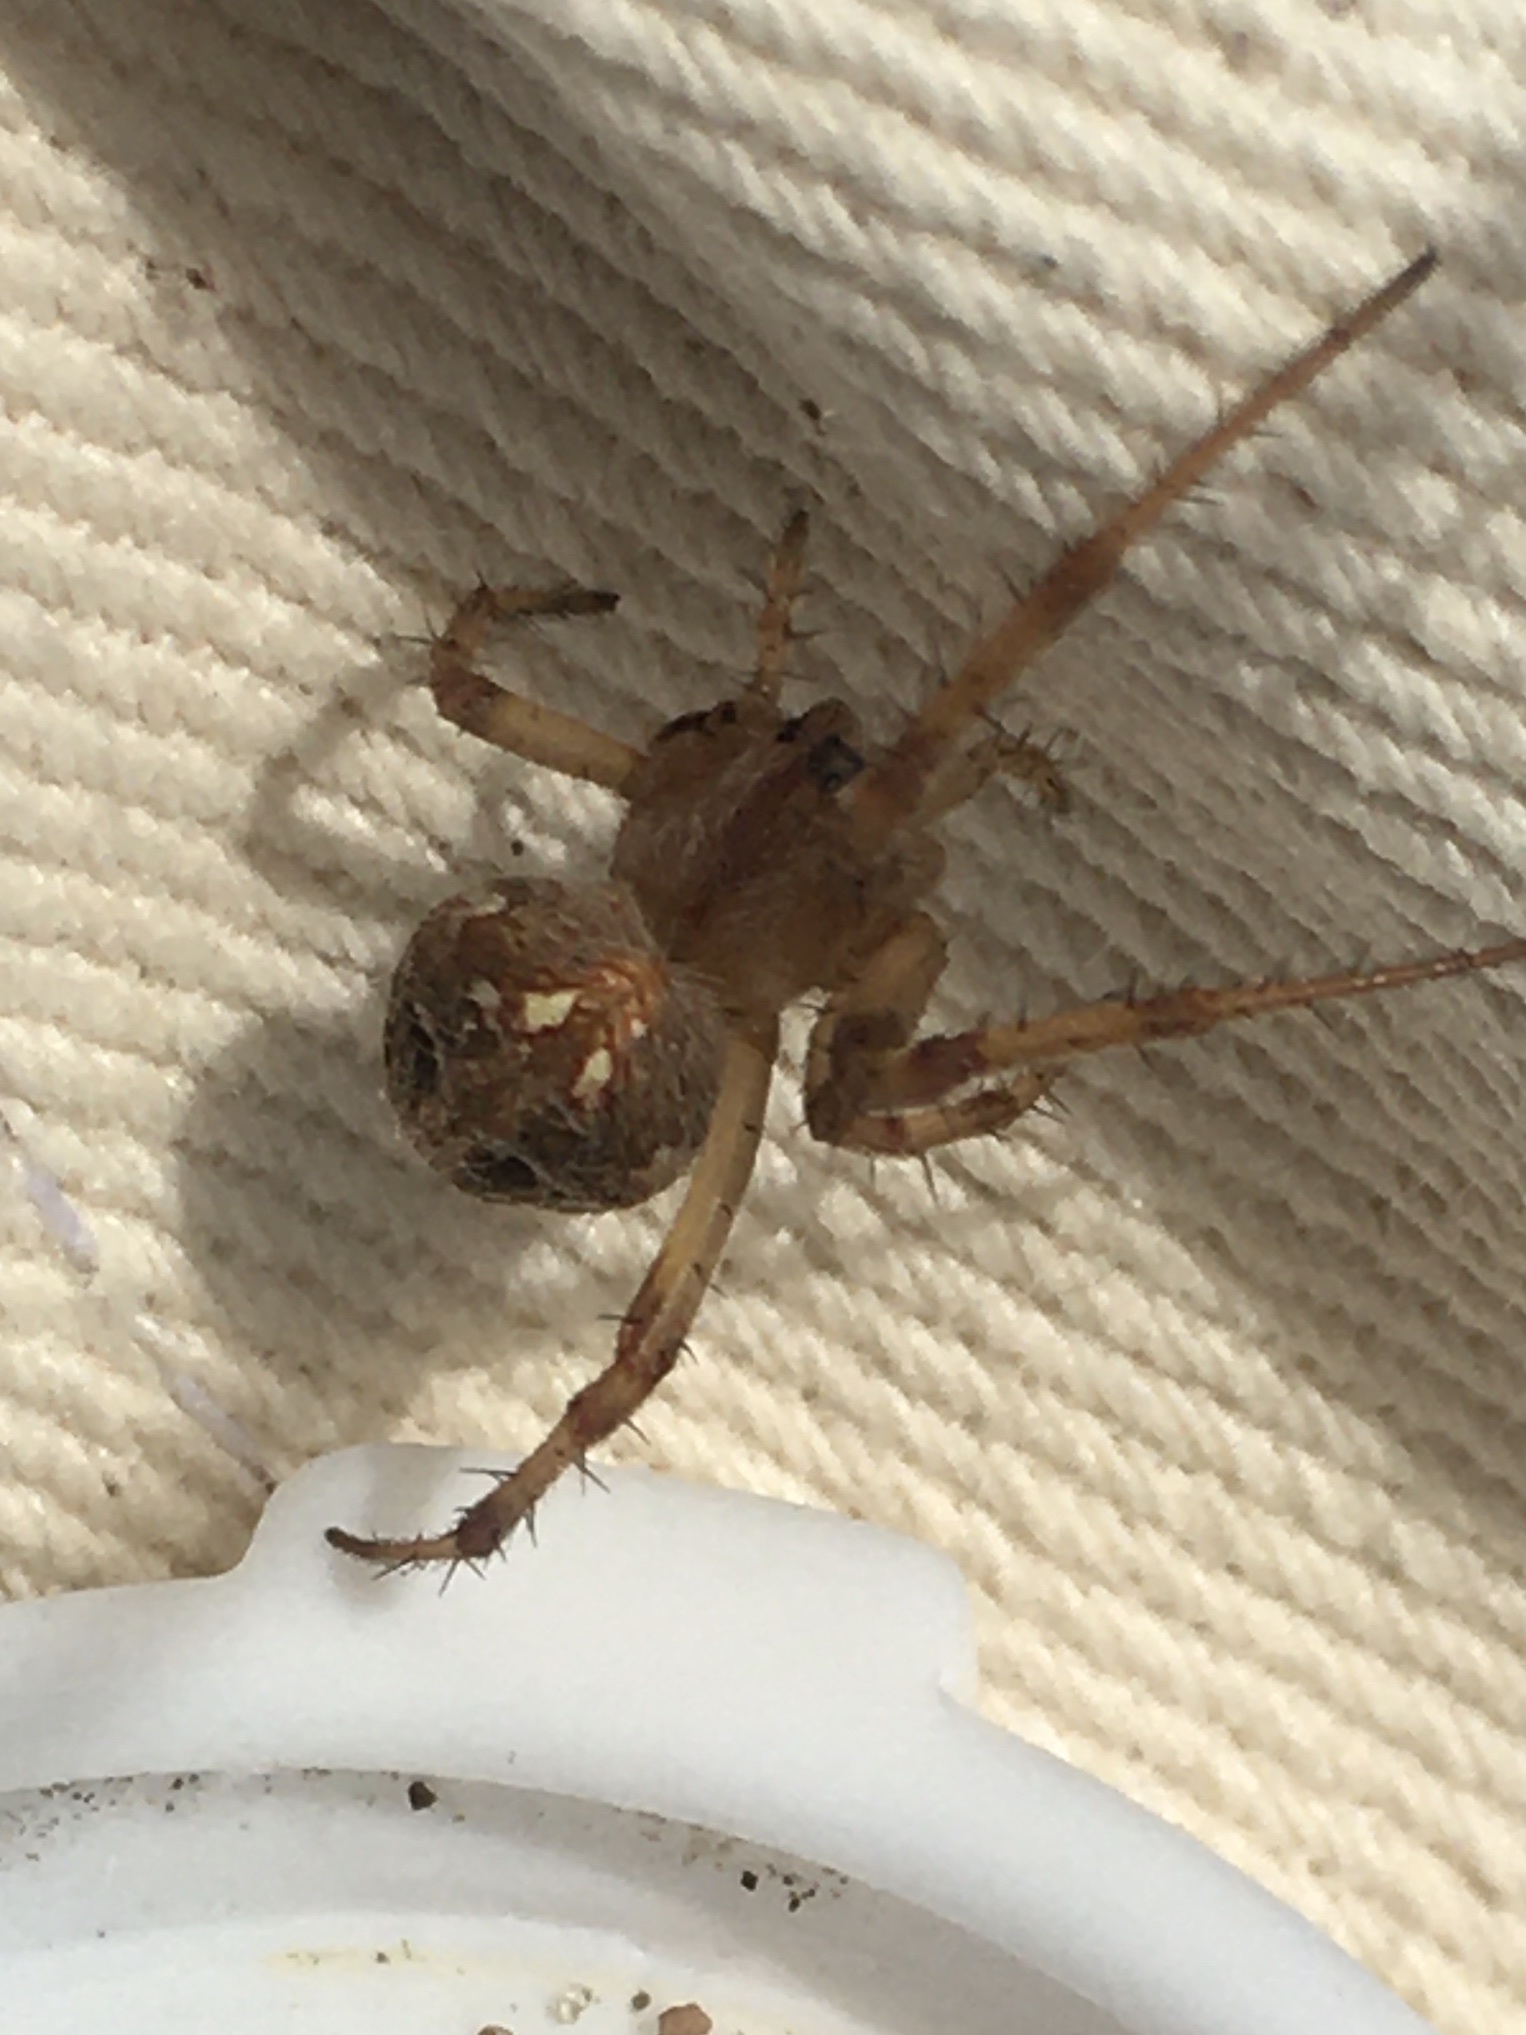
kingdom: Animalia
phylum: Arthropoda
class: Arachnida
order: Araneae
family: Araneidae
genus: Neoscona
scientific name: Neoscona arabesca
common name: Orb weavers
